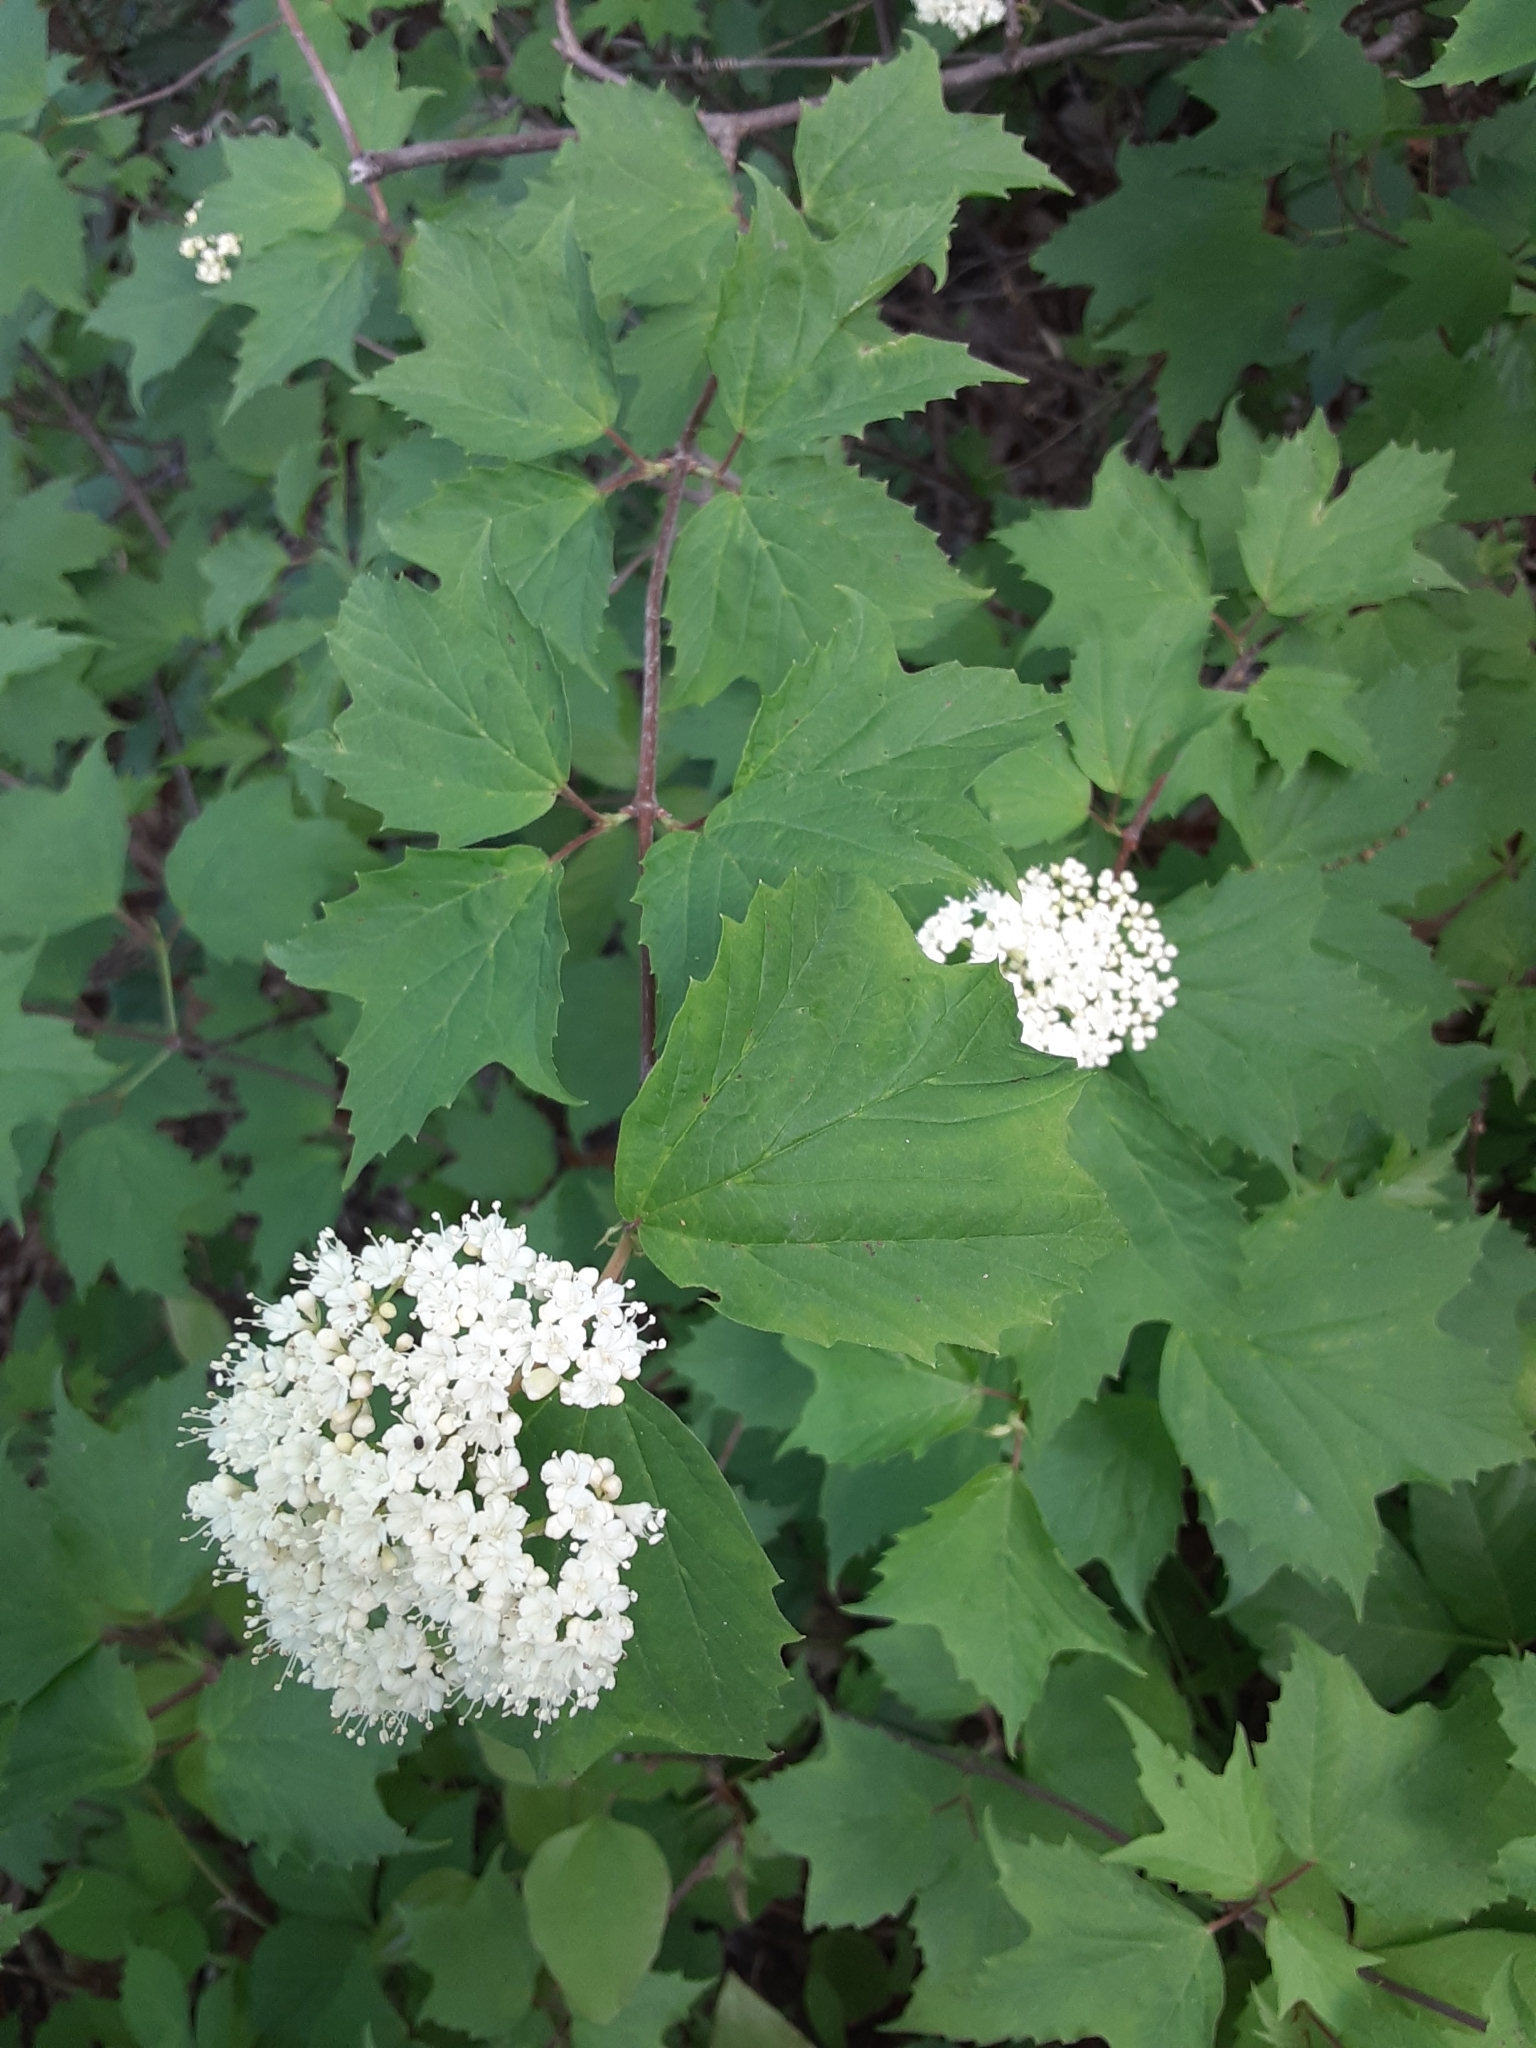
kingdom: Plantae
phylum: Tracheophyta
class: Magnoliopsida
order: Dipsacales
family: Viburnaceae
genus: Viburnum
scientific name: Viburnum acerifolium
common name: Dockmackie
